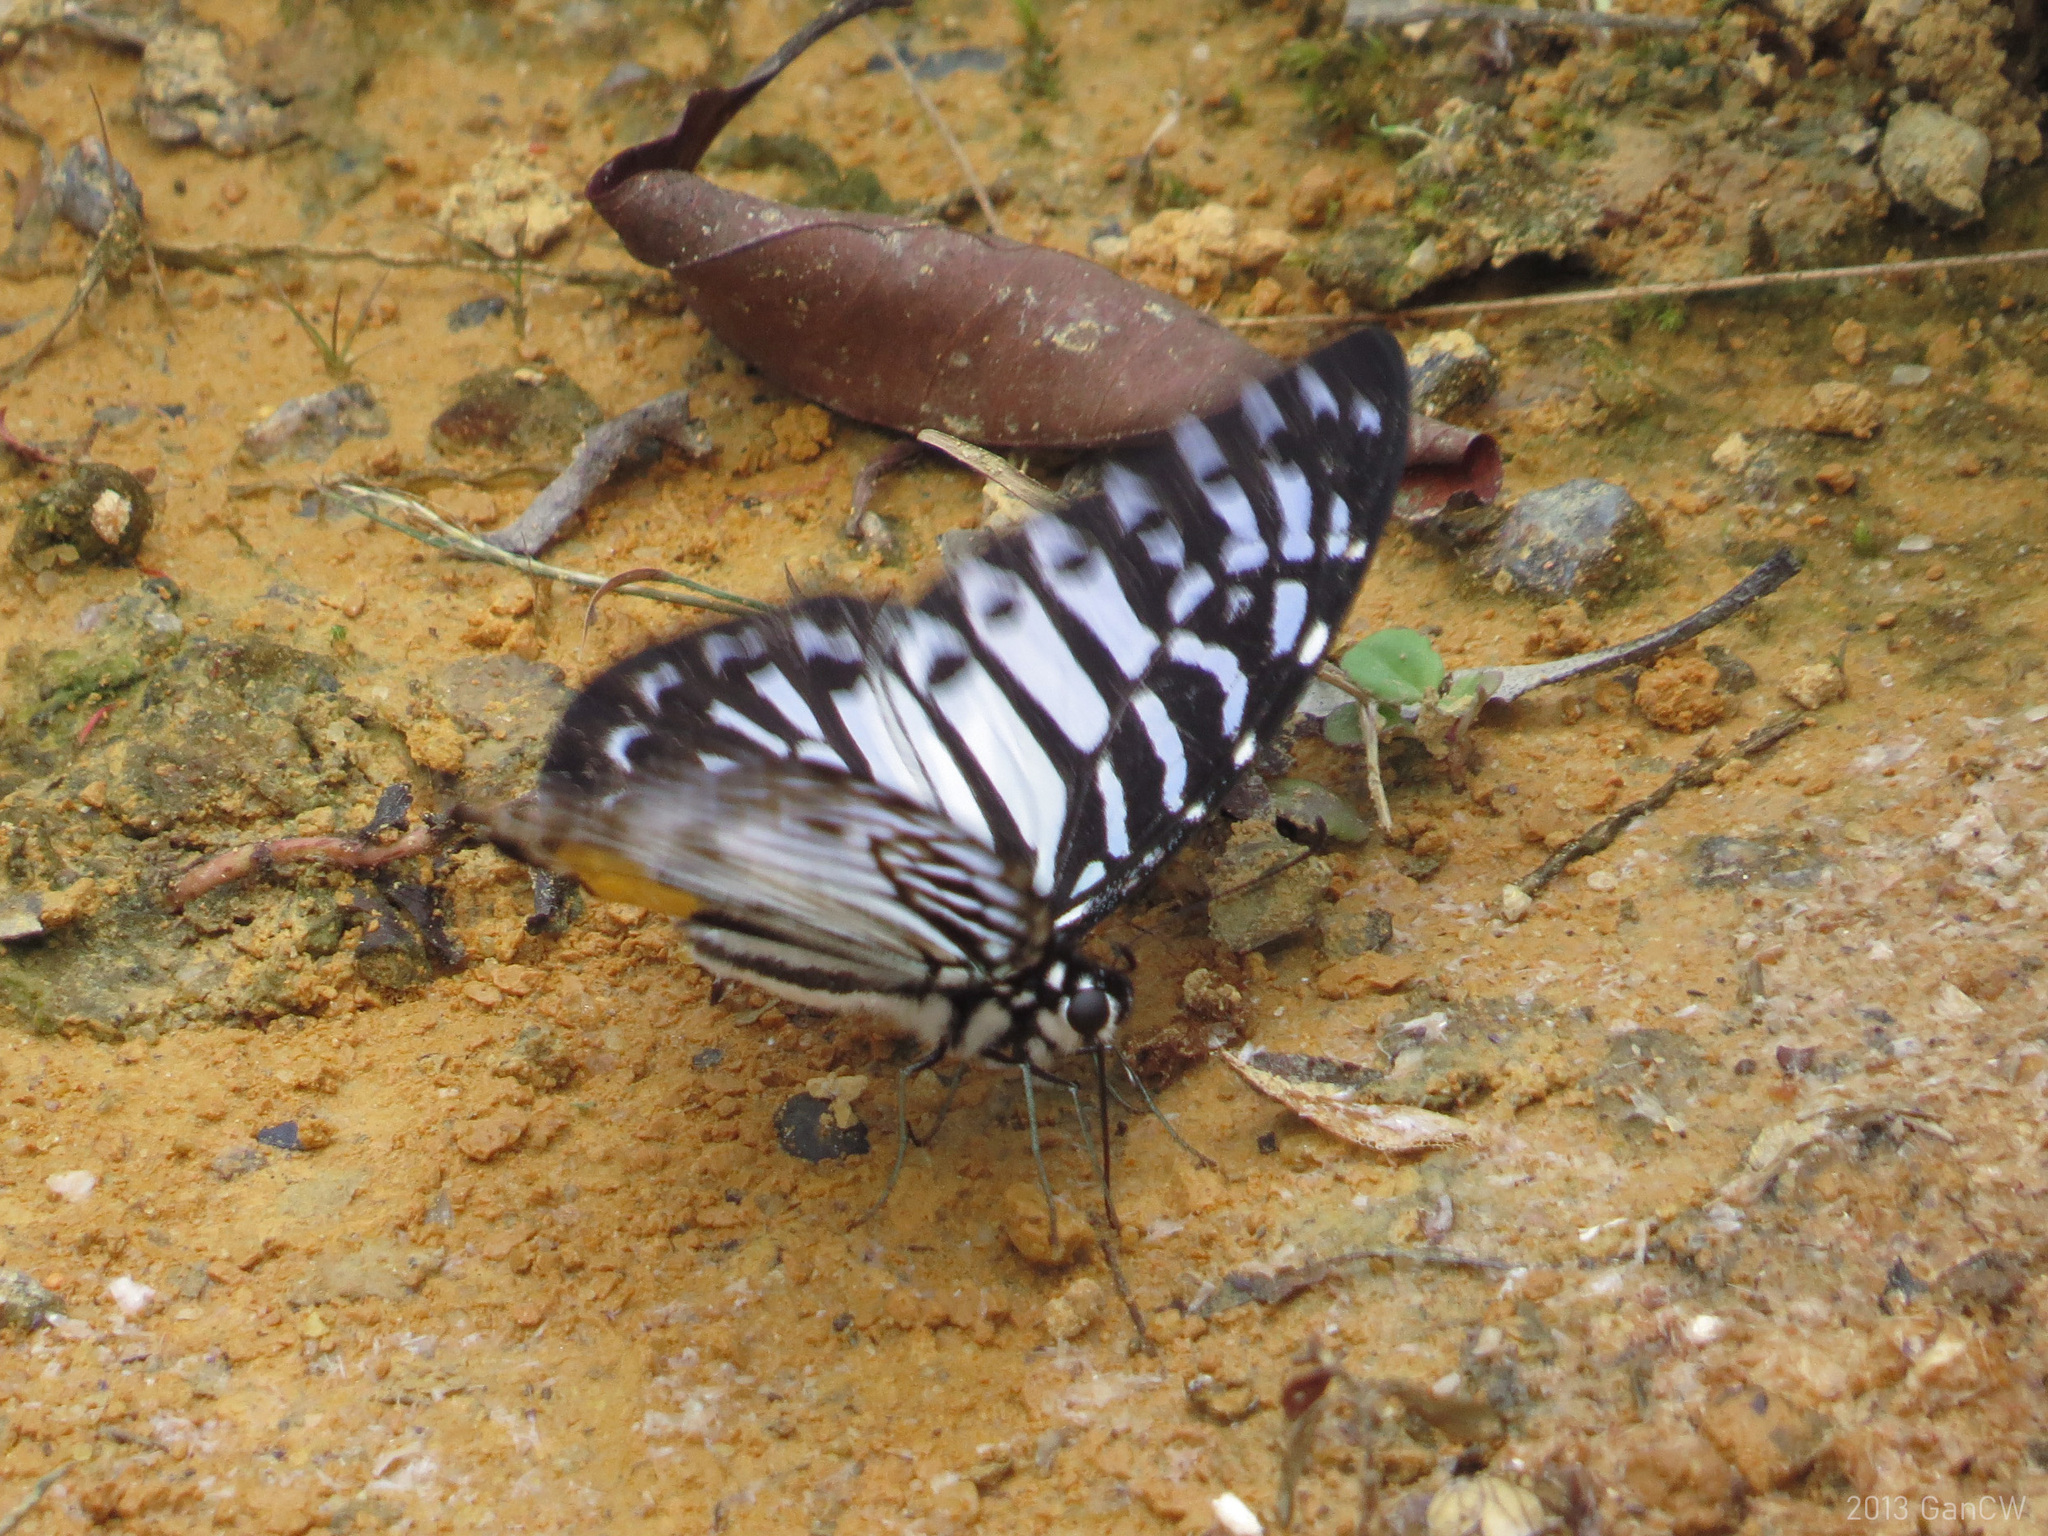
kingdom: Animalia
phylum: Arthropoda
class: Insecta
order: Lepidoptera
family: Papilionidae
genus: Graphium
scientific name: Graphium delesserti
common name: Malayan zebra
